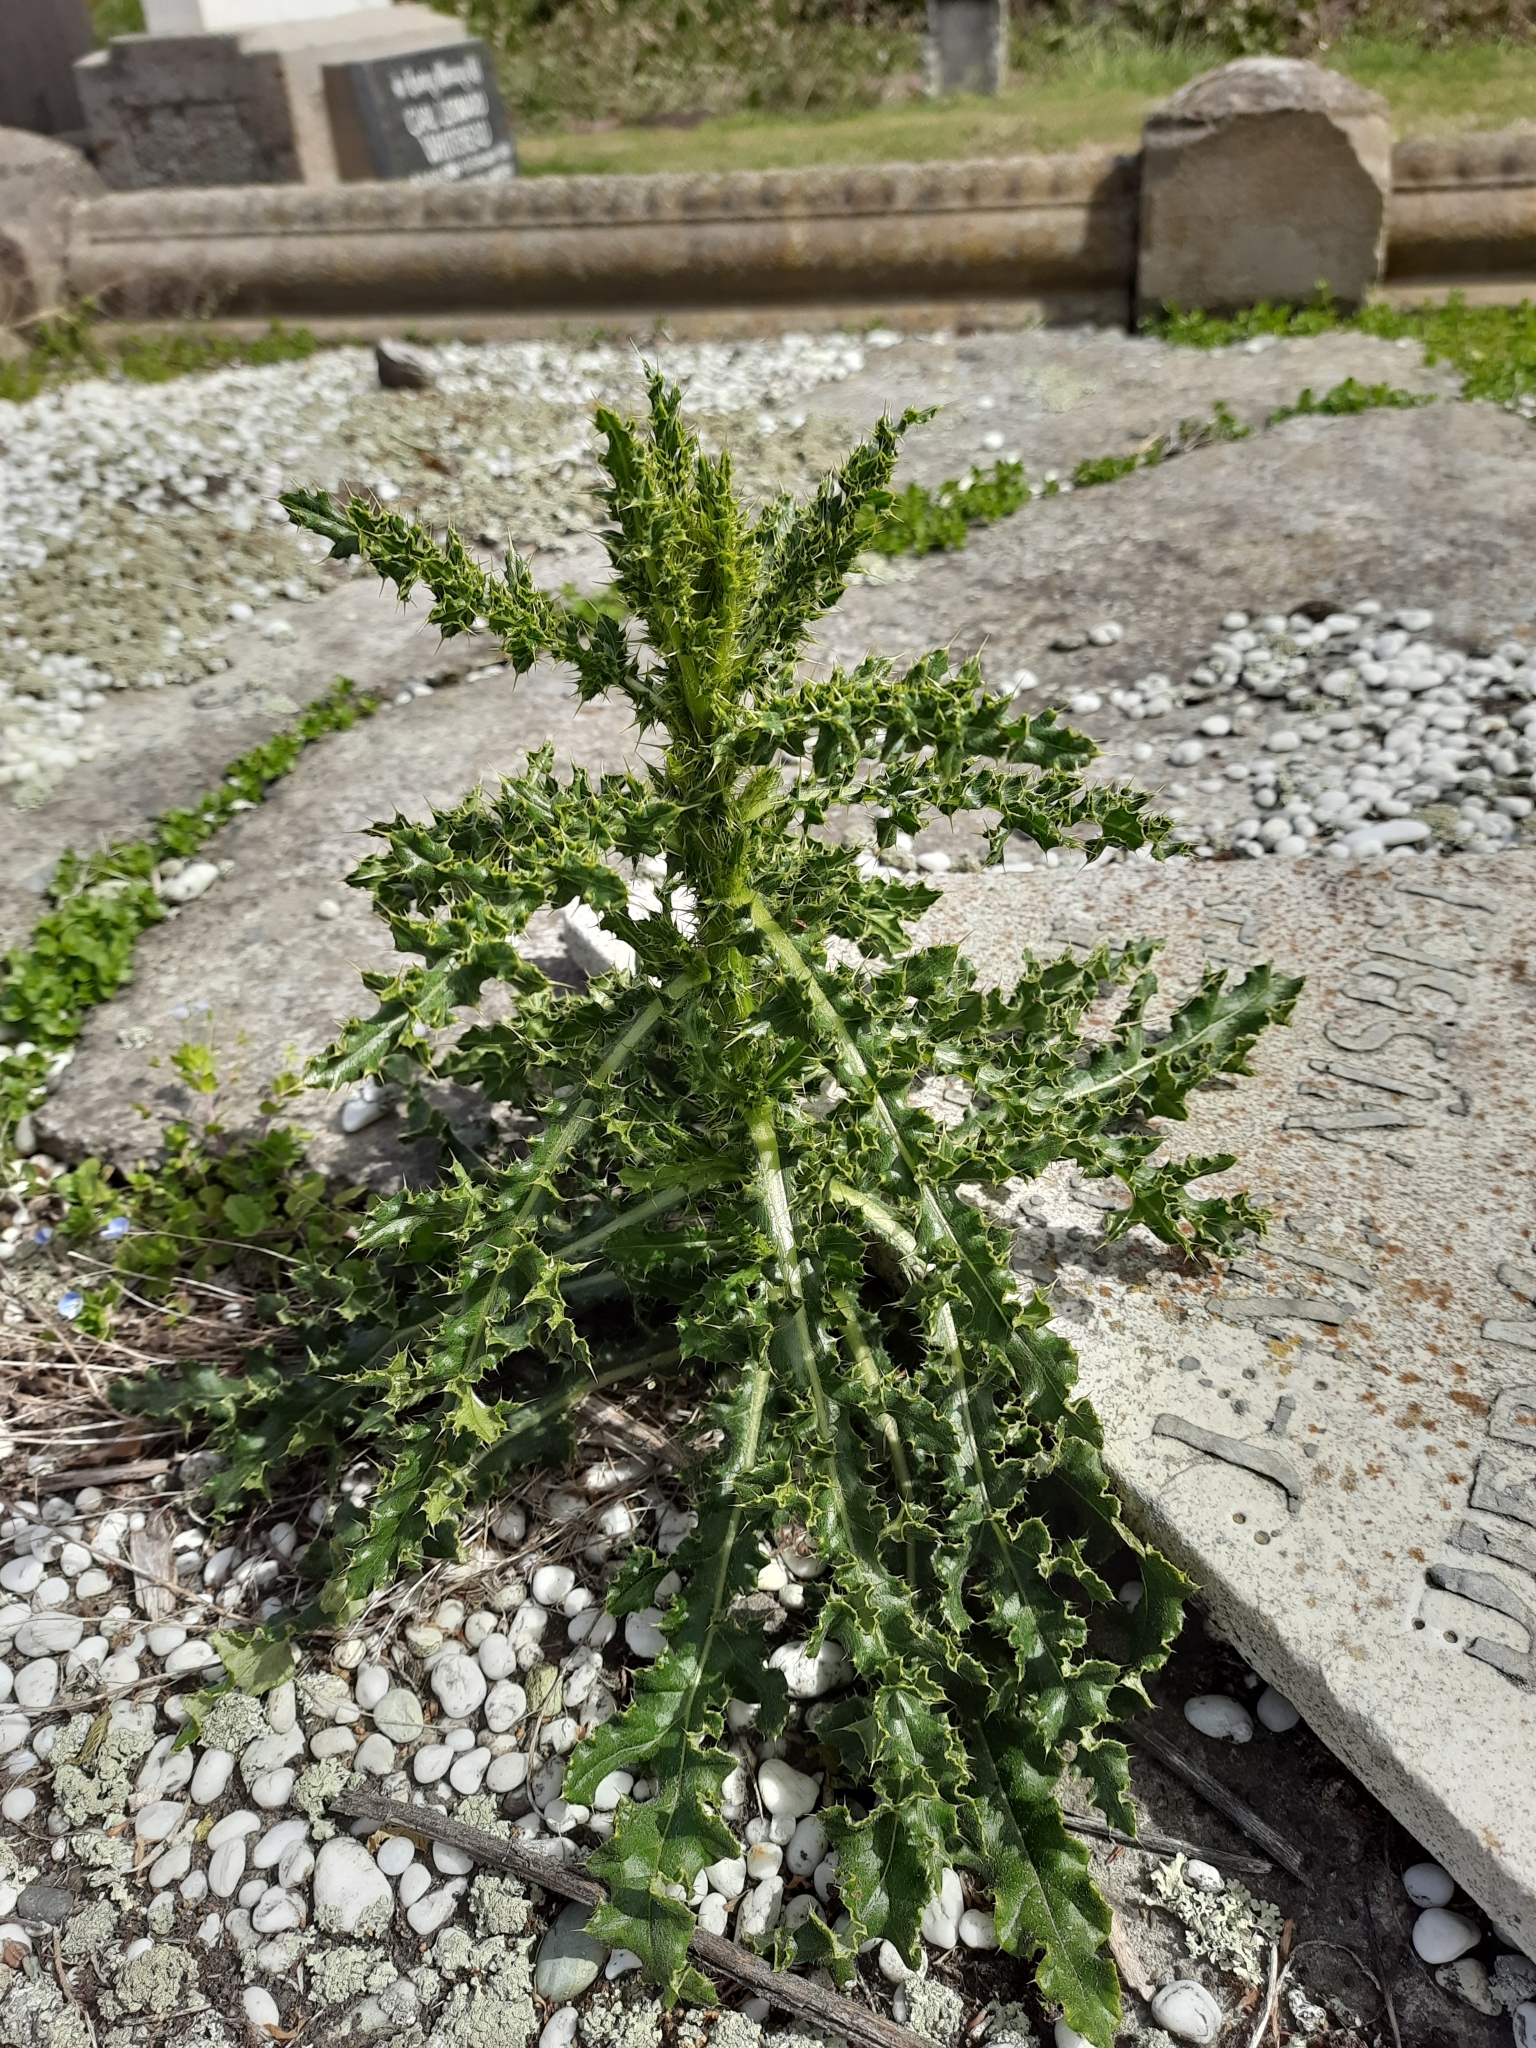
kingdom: Plantae
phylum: Tracheophyta
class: Magnoliopsida
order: Asterales
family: Asteraceae
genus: Cirsium
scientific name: Cirsium arvense
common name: Creeping thistle
